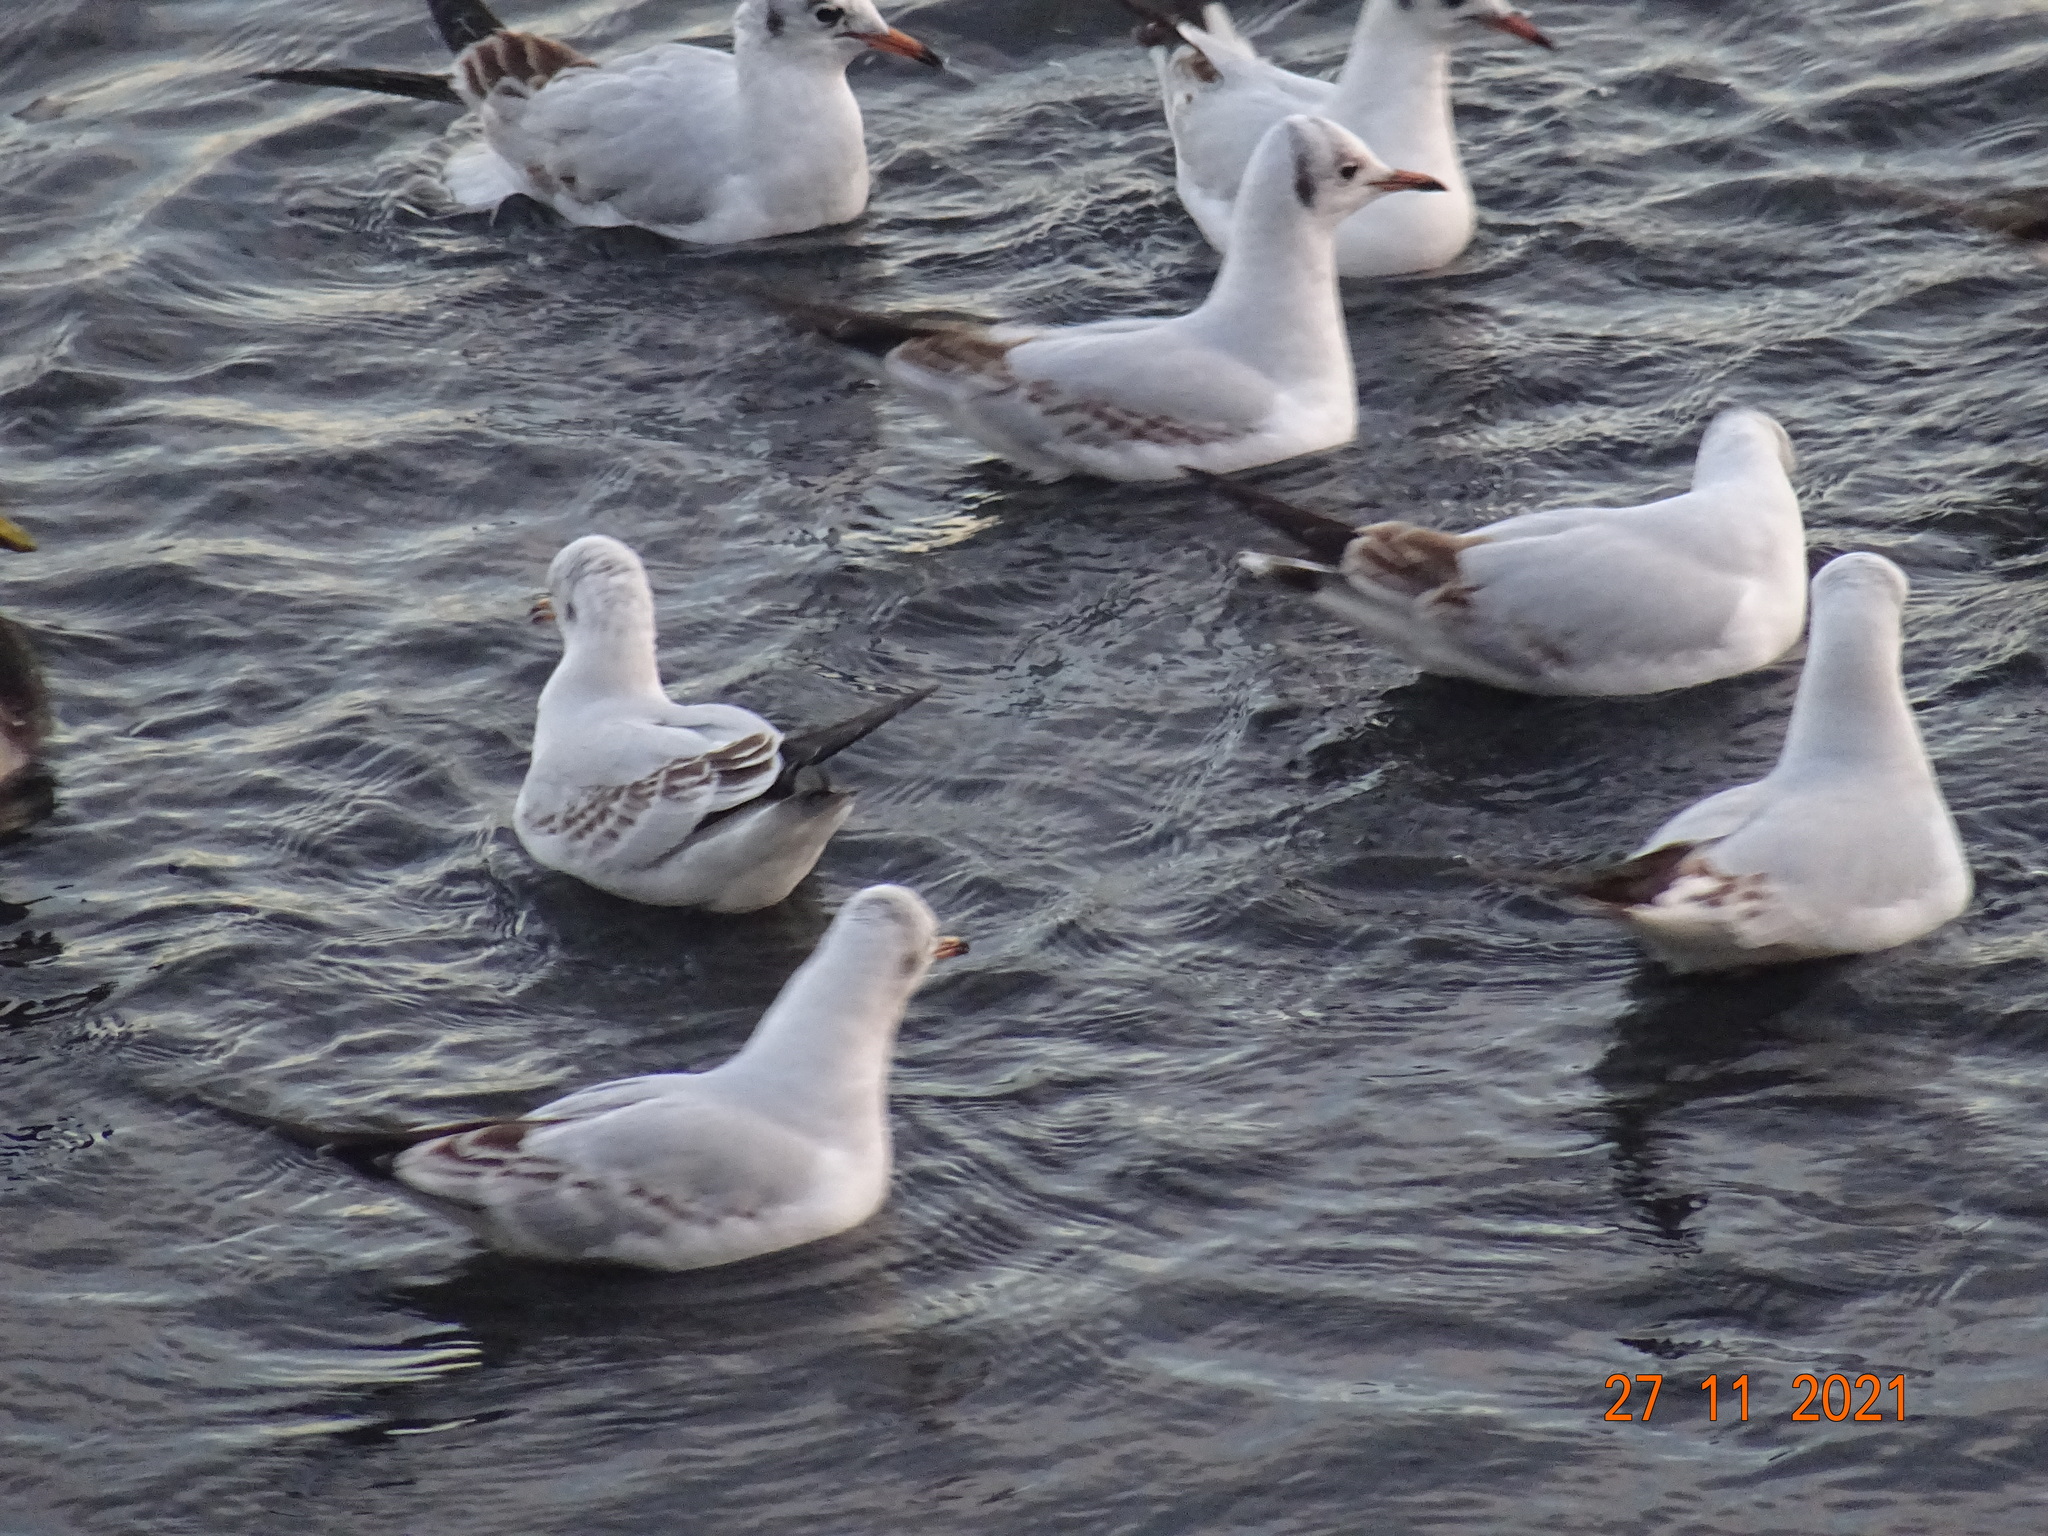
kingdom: Animalia
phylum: Chordata
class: Aves
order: Charadriiformes
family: Laridae
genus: Chroicocephalus
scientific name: Chroicocephalus ridibundus
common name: Black-headed gull
